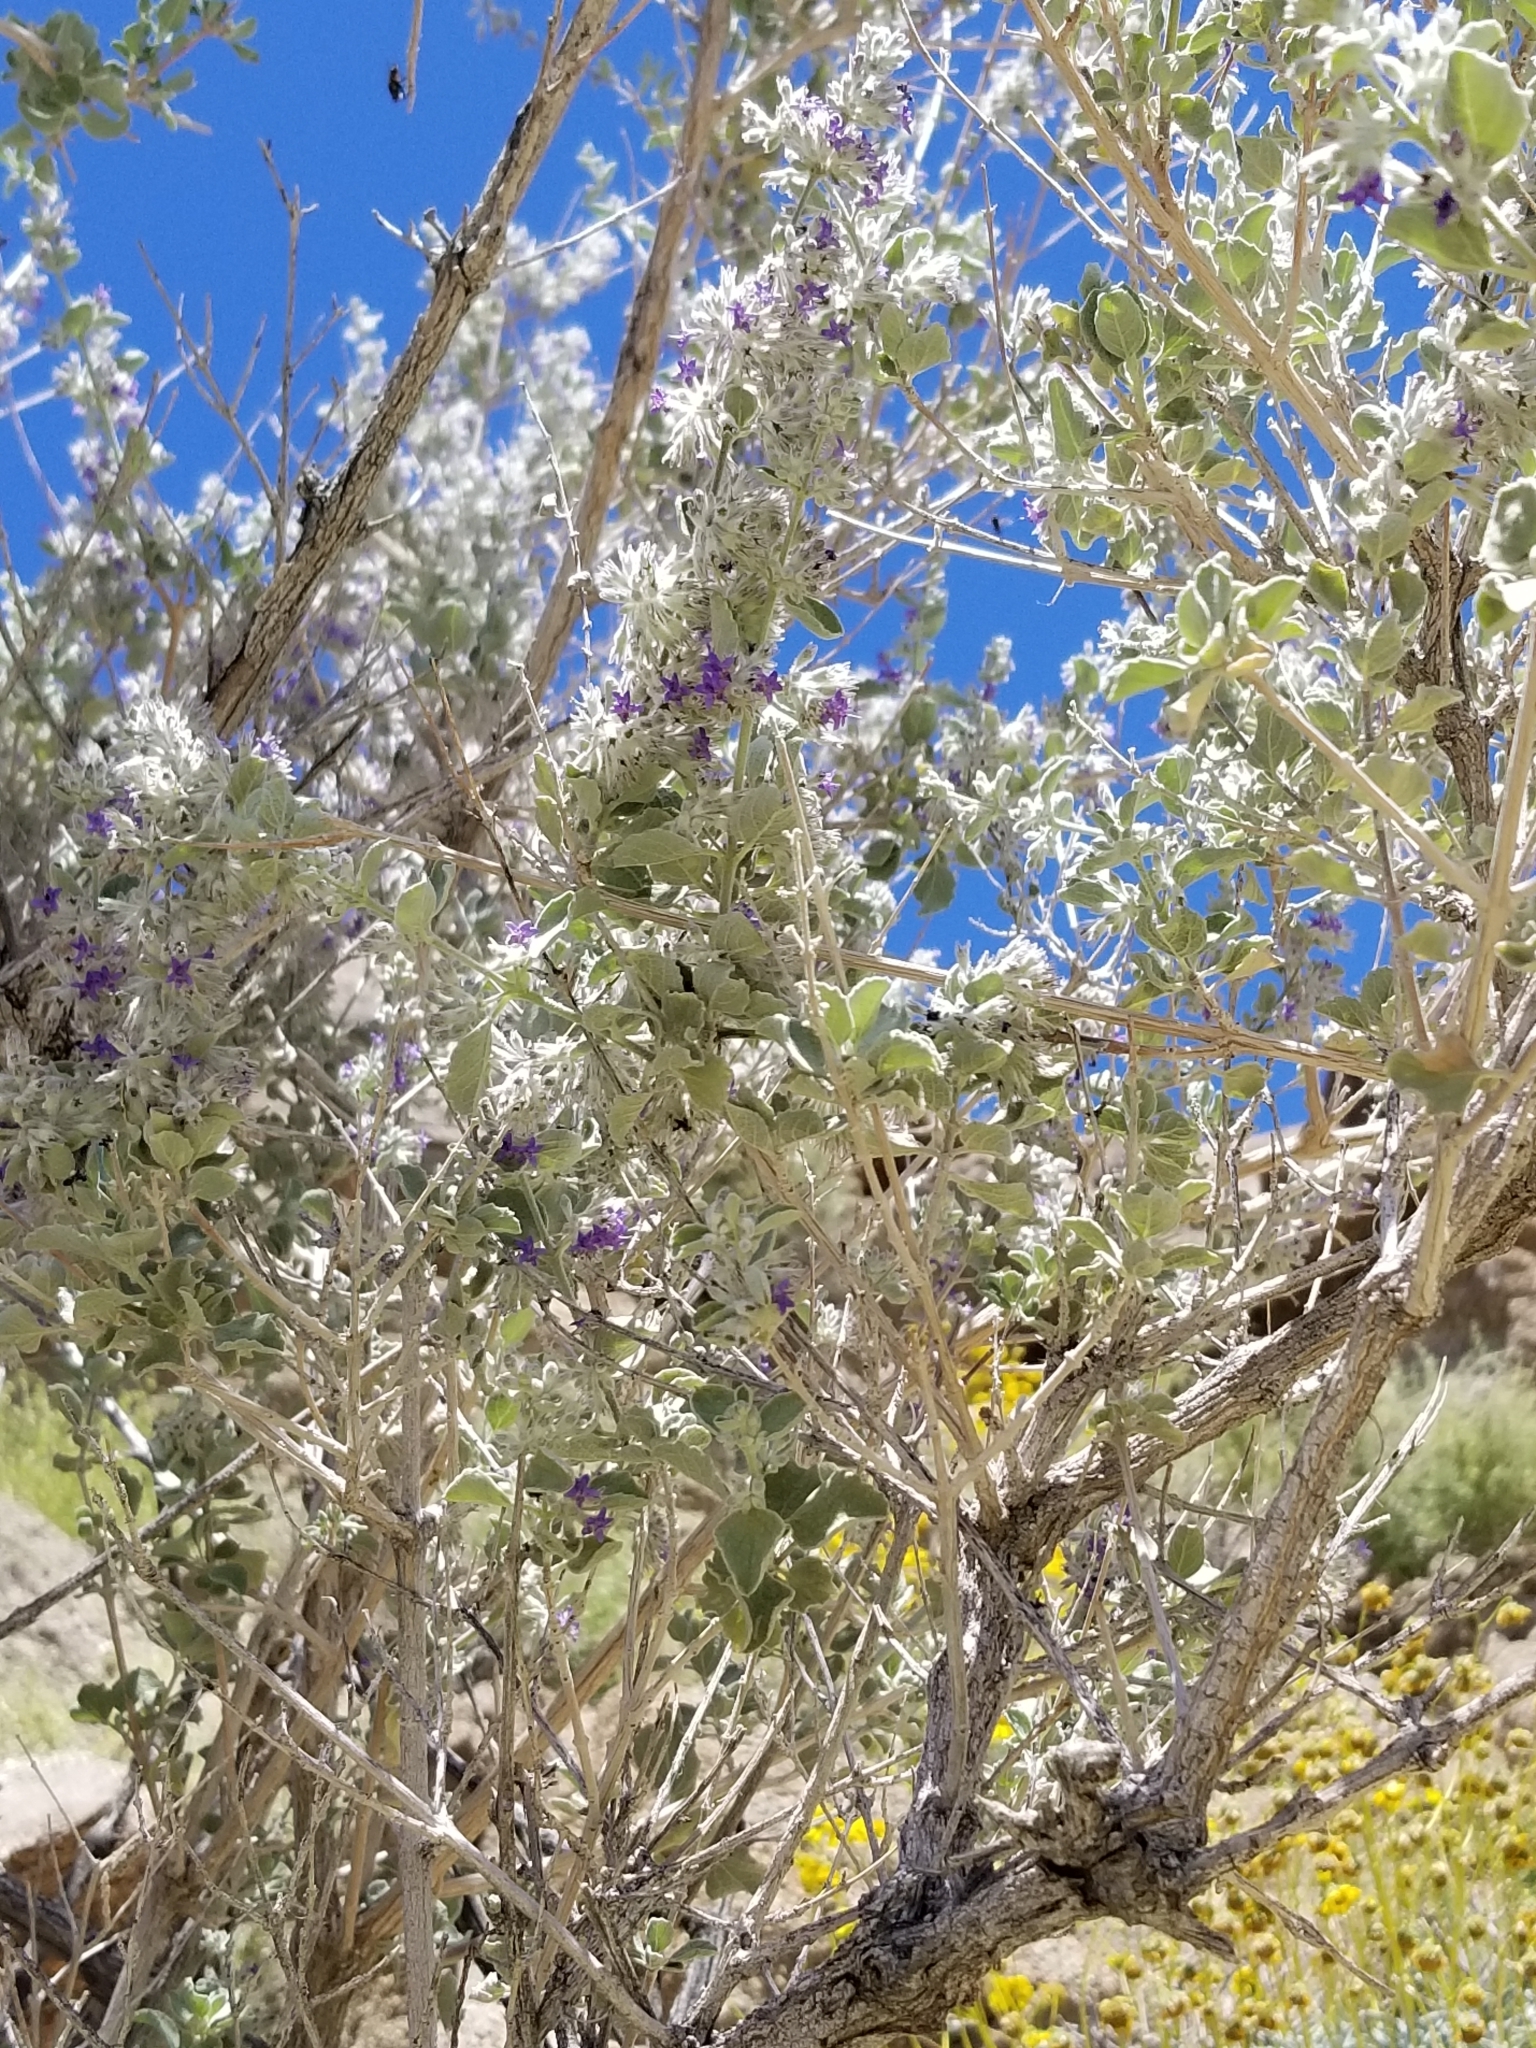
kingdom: Plantae
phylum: Tracheophyta
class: Magnoliopsida
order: Lamiales
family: Lamiaceae
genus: Condea
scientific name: Condea emoryi
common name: Chia
